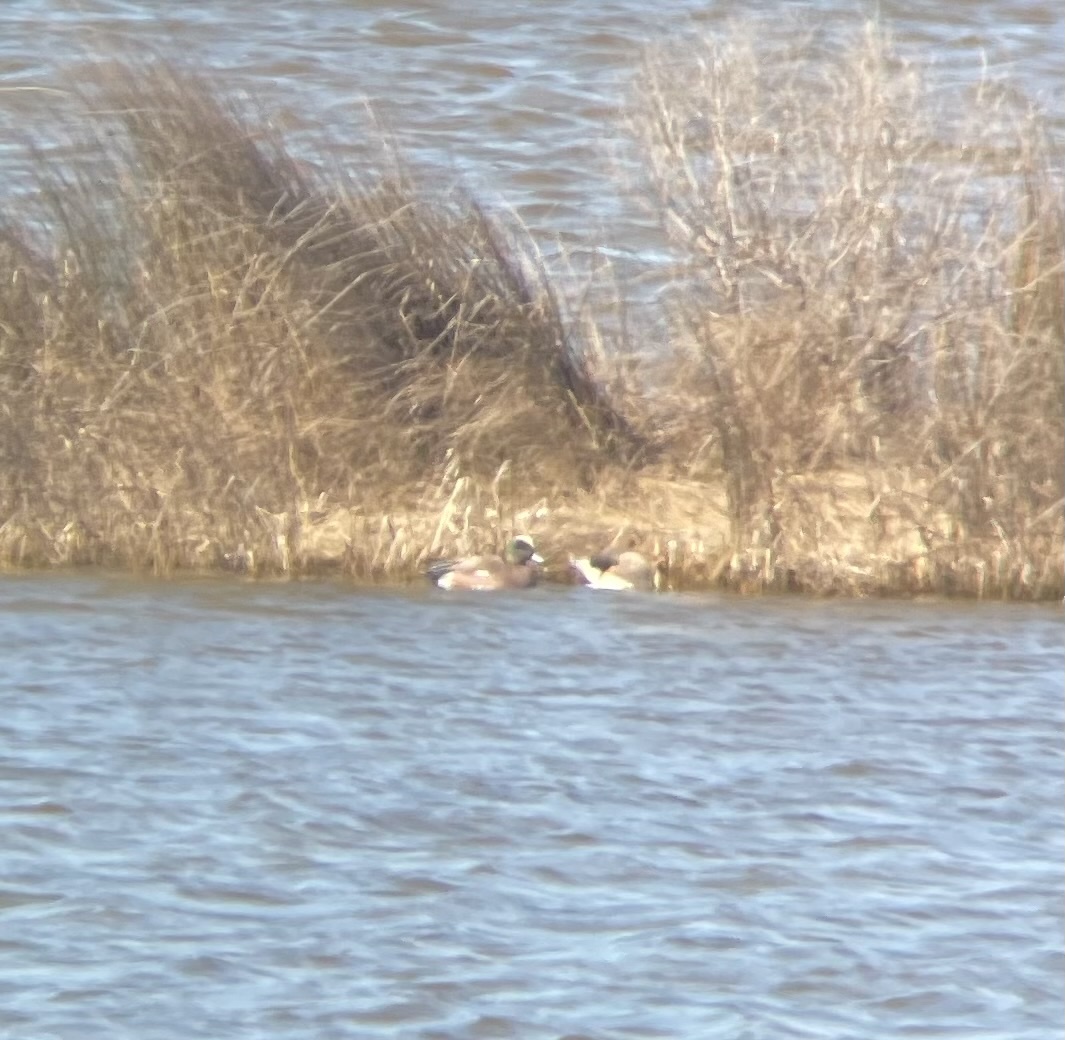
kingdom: Animalia
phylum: Chordata
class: Aves
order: Anseriformes
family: Anatidae
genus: Mareca
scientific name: Mareca americana
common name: American wigeon
